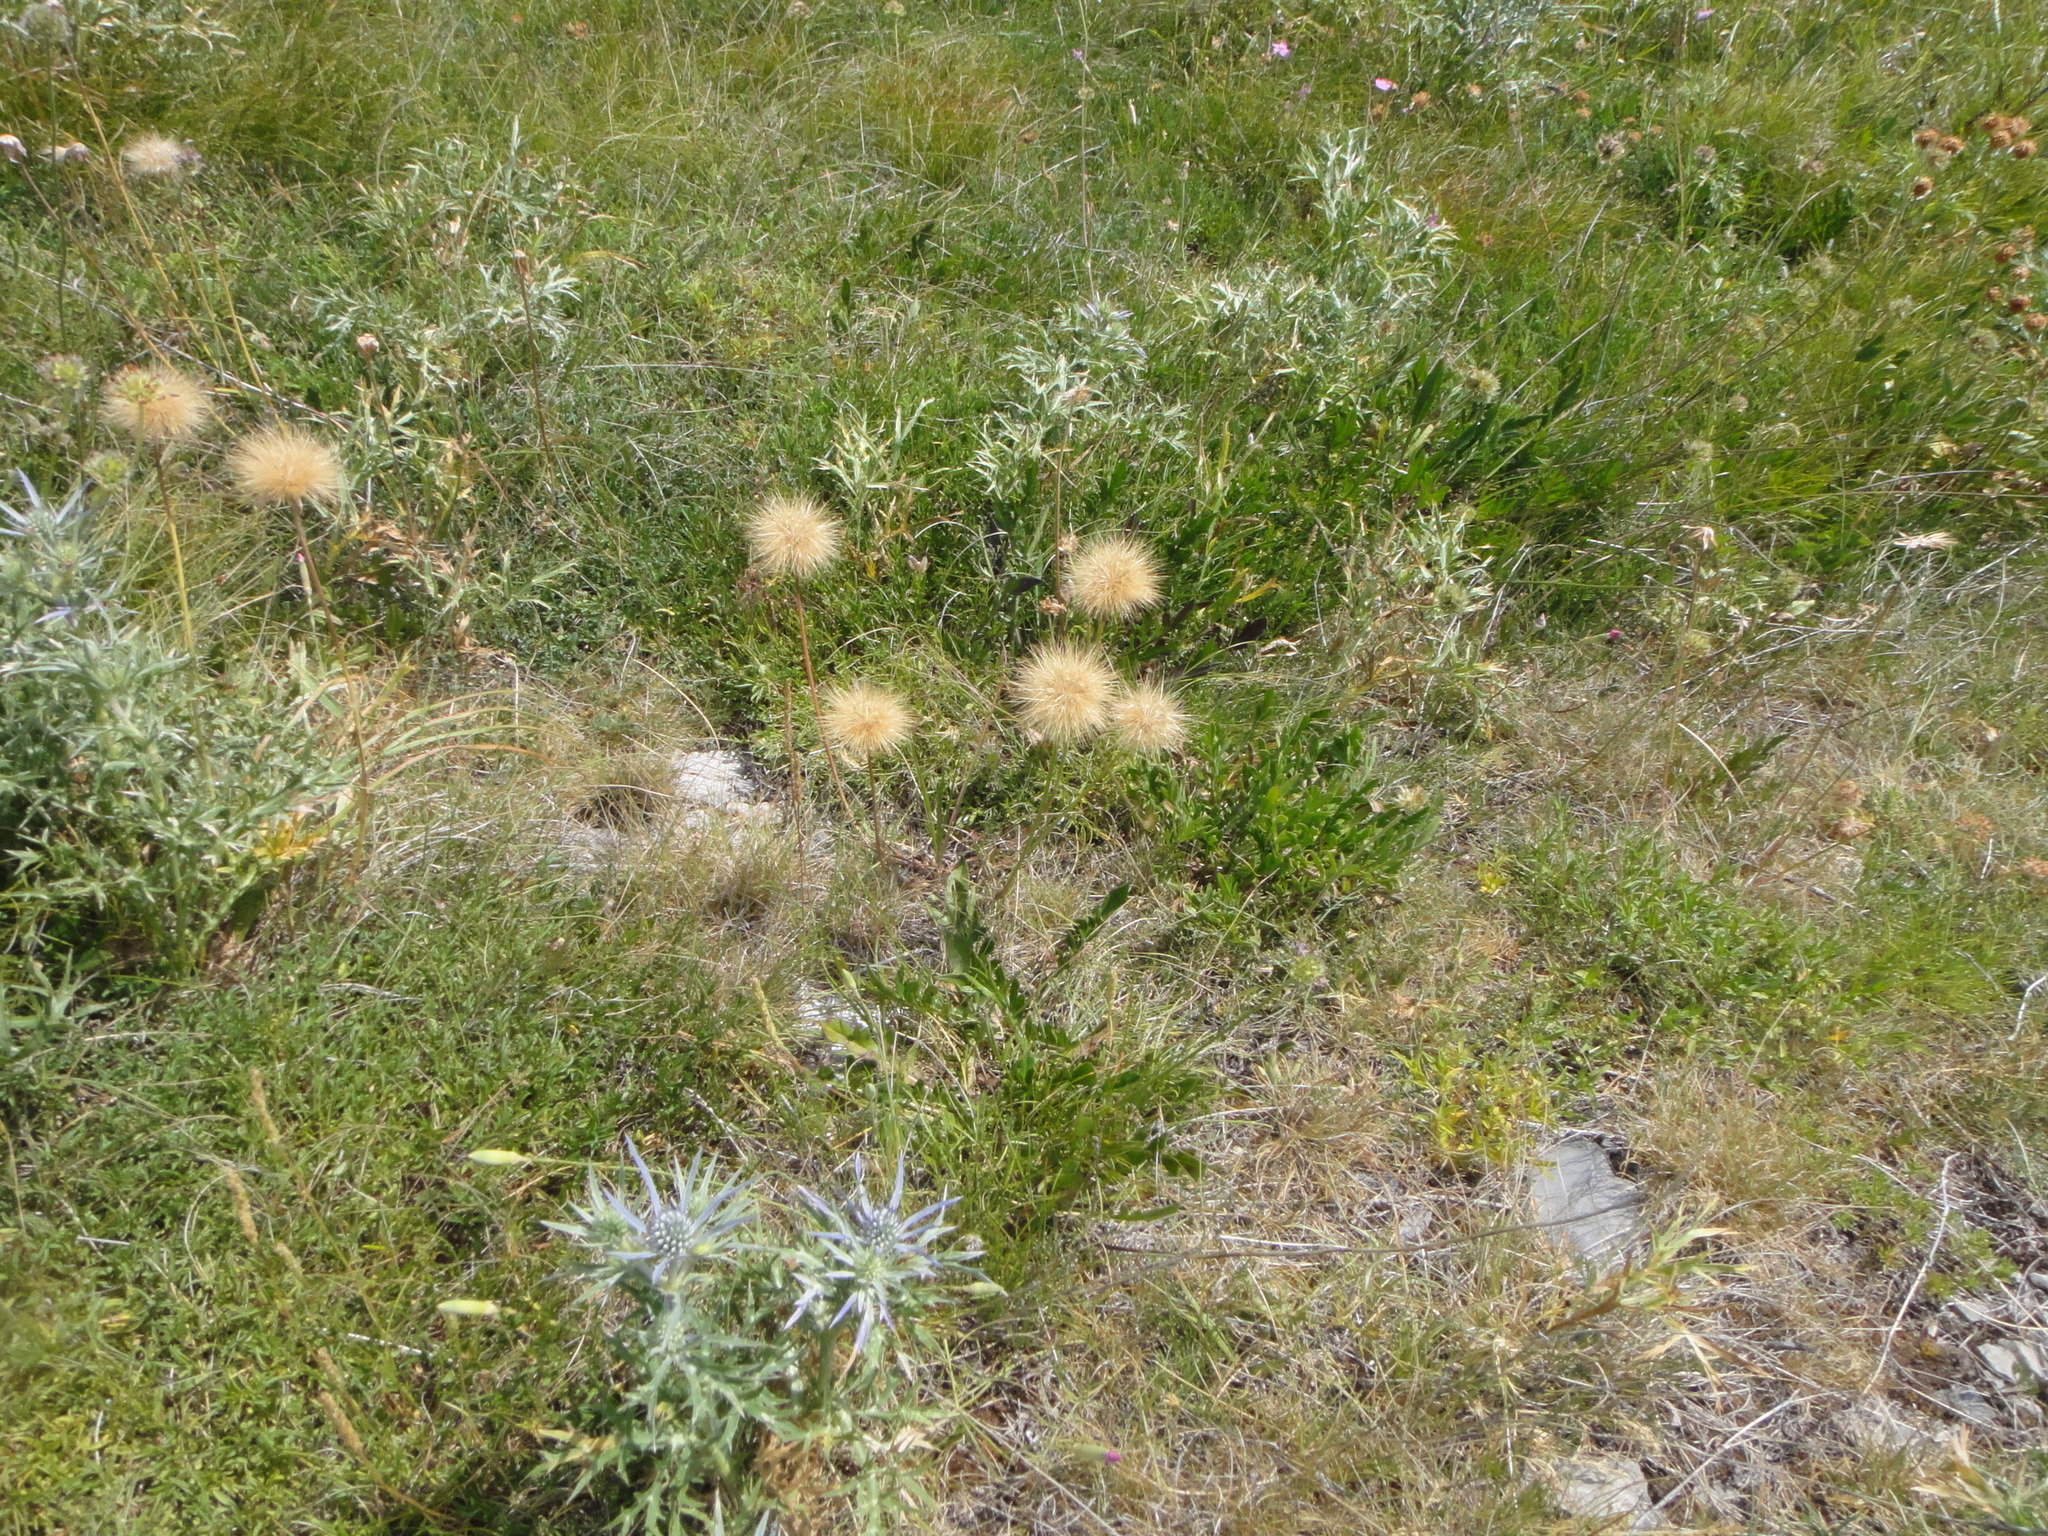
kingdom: Plantae
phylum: Tracheophyta
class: Magnoliopsida
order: Asterales
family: Asteraceae
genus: Gelasia
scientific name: Gelasia villosa
